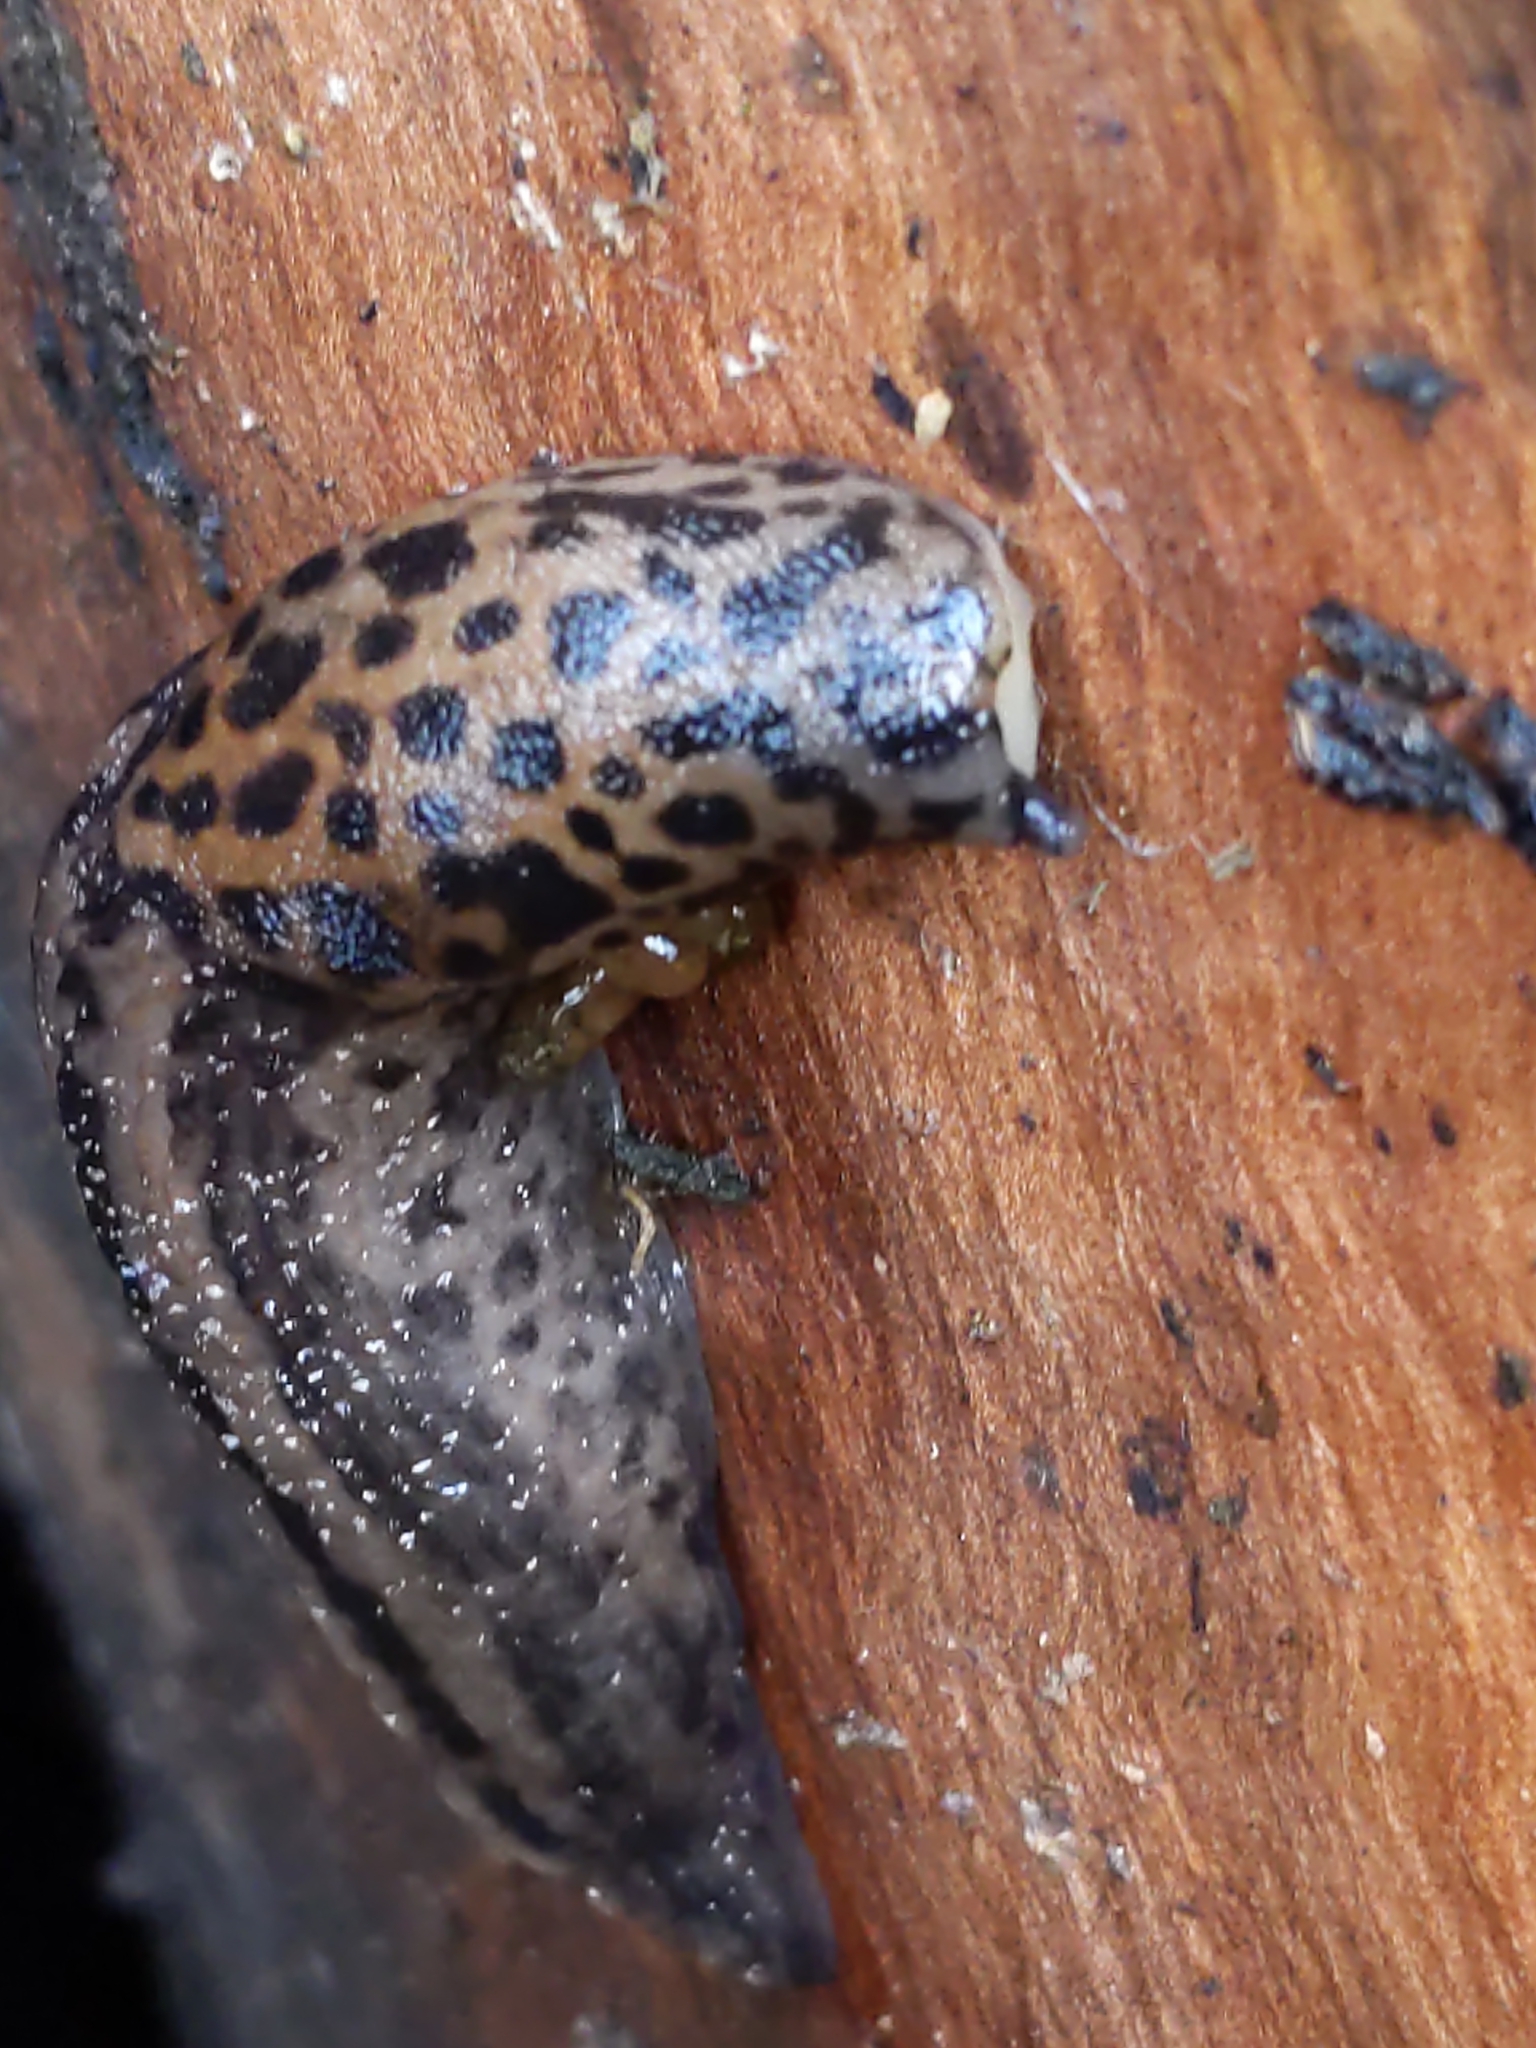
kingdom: Animalia
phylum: Mollusca
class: Gastropoda
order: Stylommatophora
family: Limacidae
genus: Limax
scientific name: Limax maximus
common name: Great grey slug
